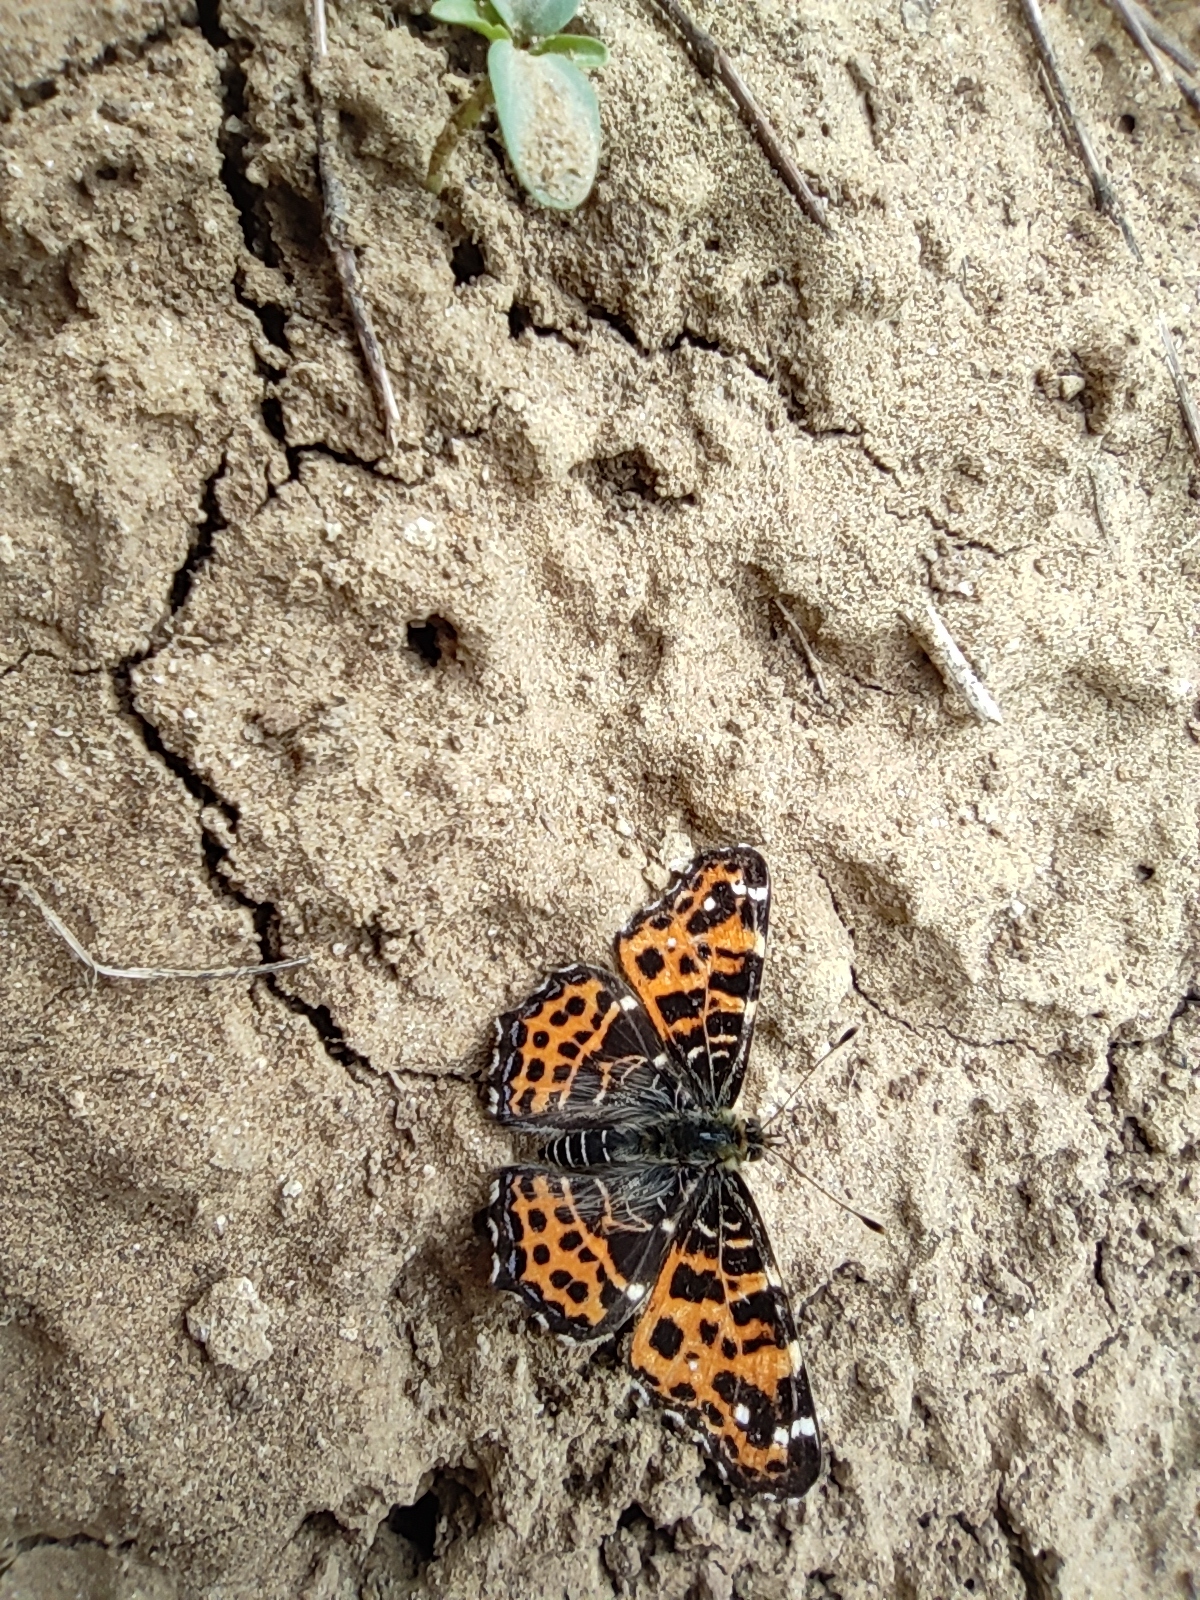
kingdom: Animalia
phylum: Arthropoda
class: Insecta
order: Lepidoptera
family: Nymphalidae
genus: Araschnia
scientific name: Araschnia levana
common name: Map butterfly
